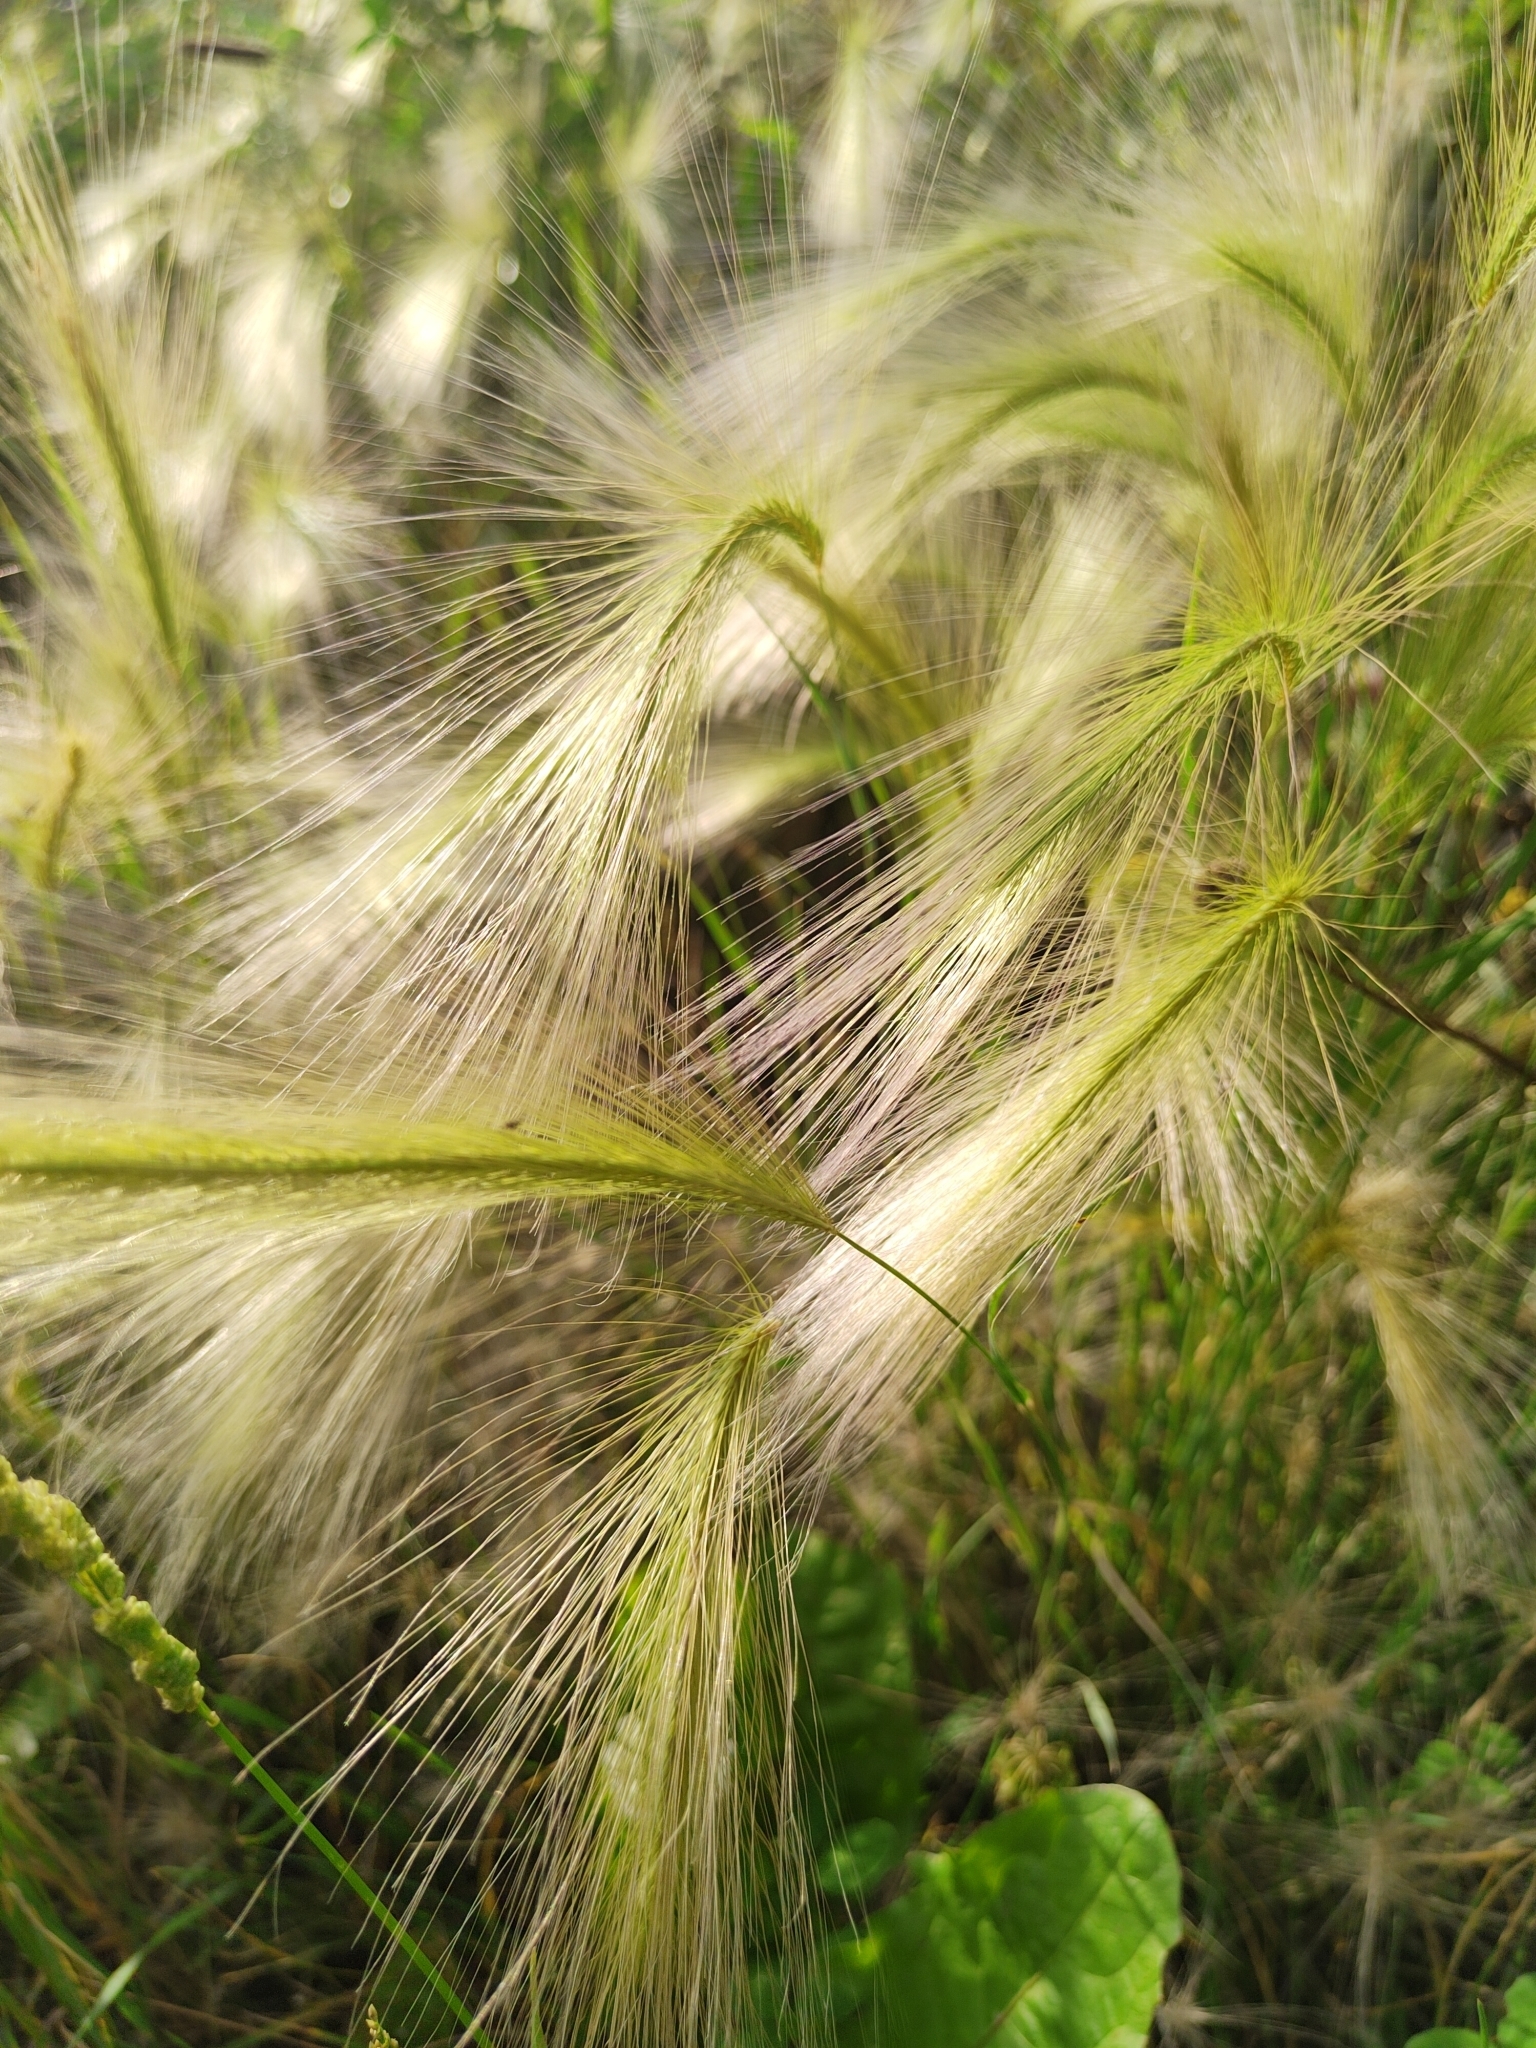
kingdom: Plantae
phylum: Tracheophyta
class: Liliopsida
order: Poales
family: Poaceae
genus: Hordeum
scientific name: Hordeum jubatum
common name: Foxtail barley
